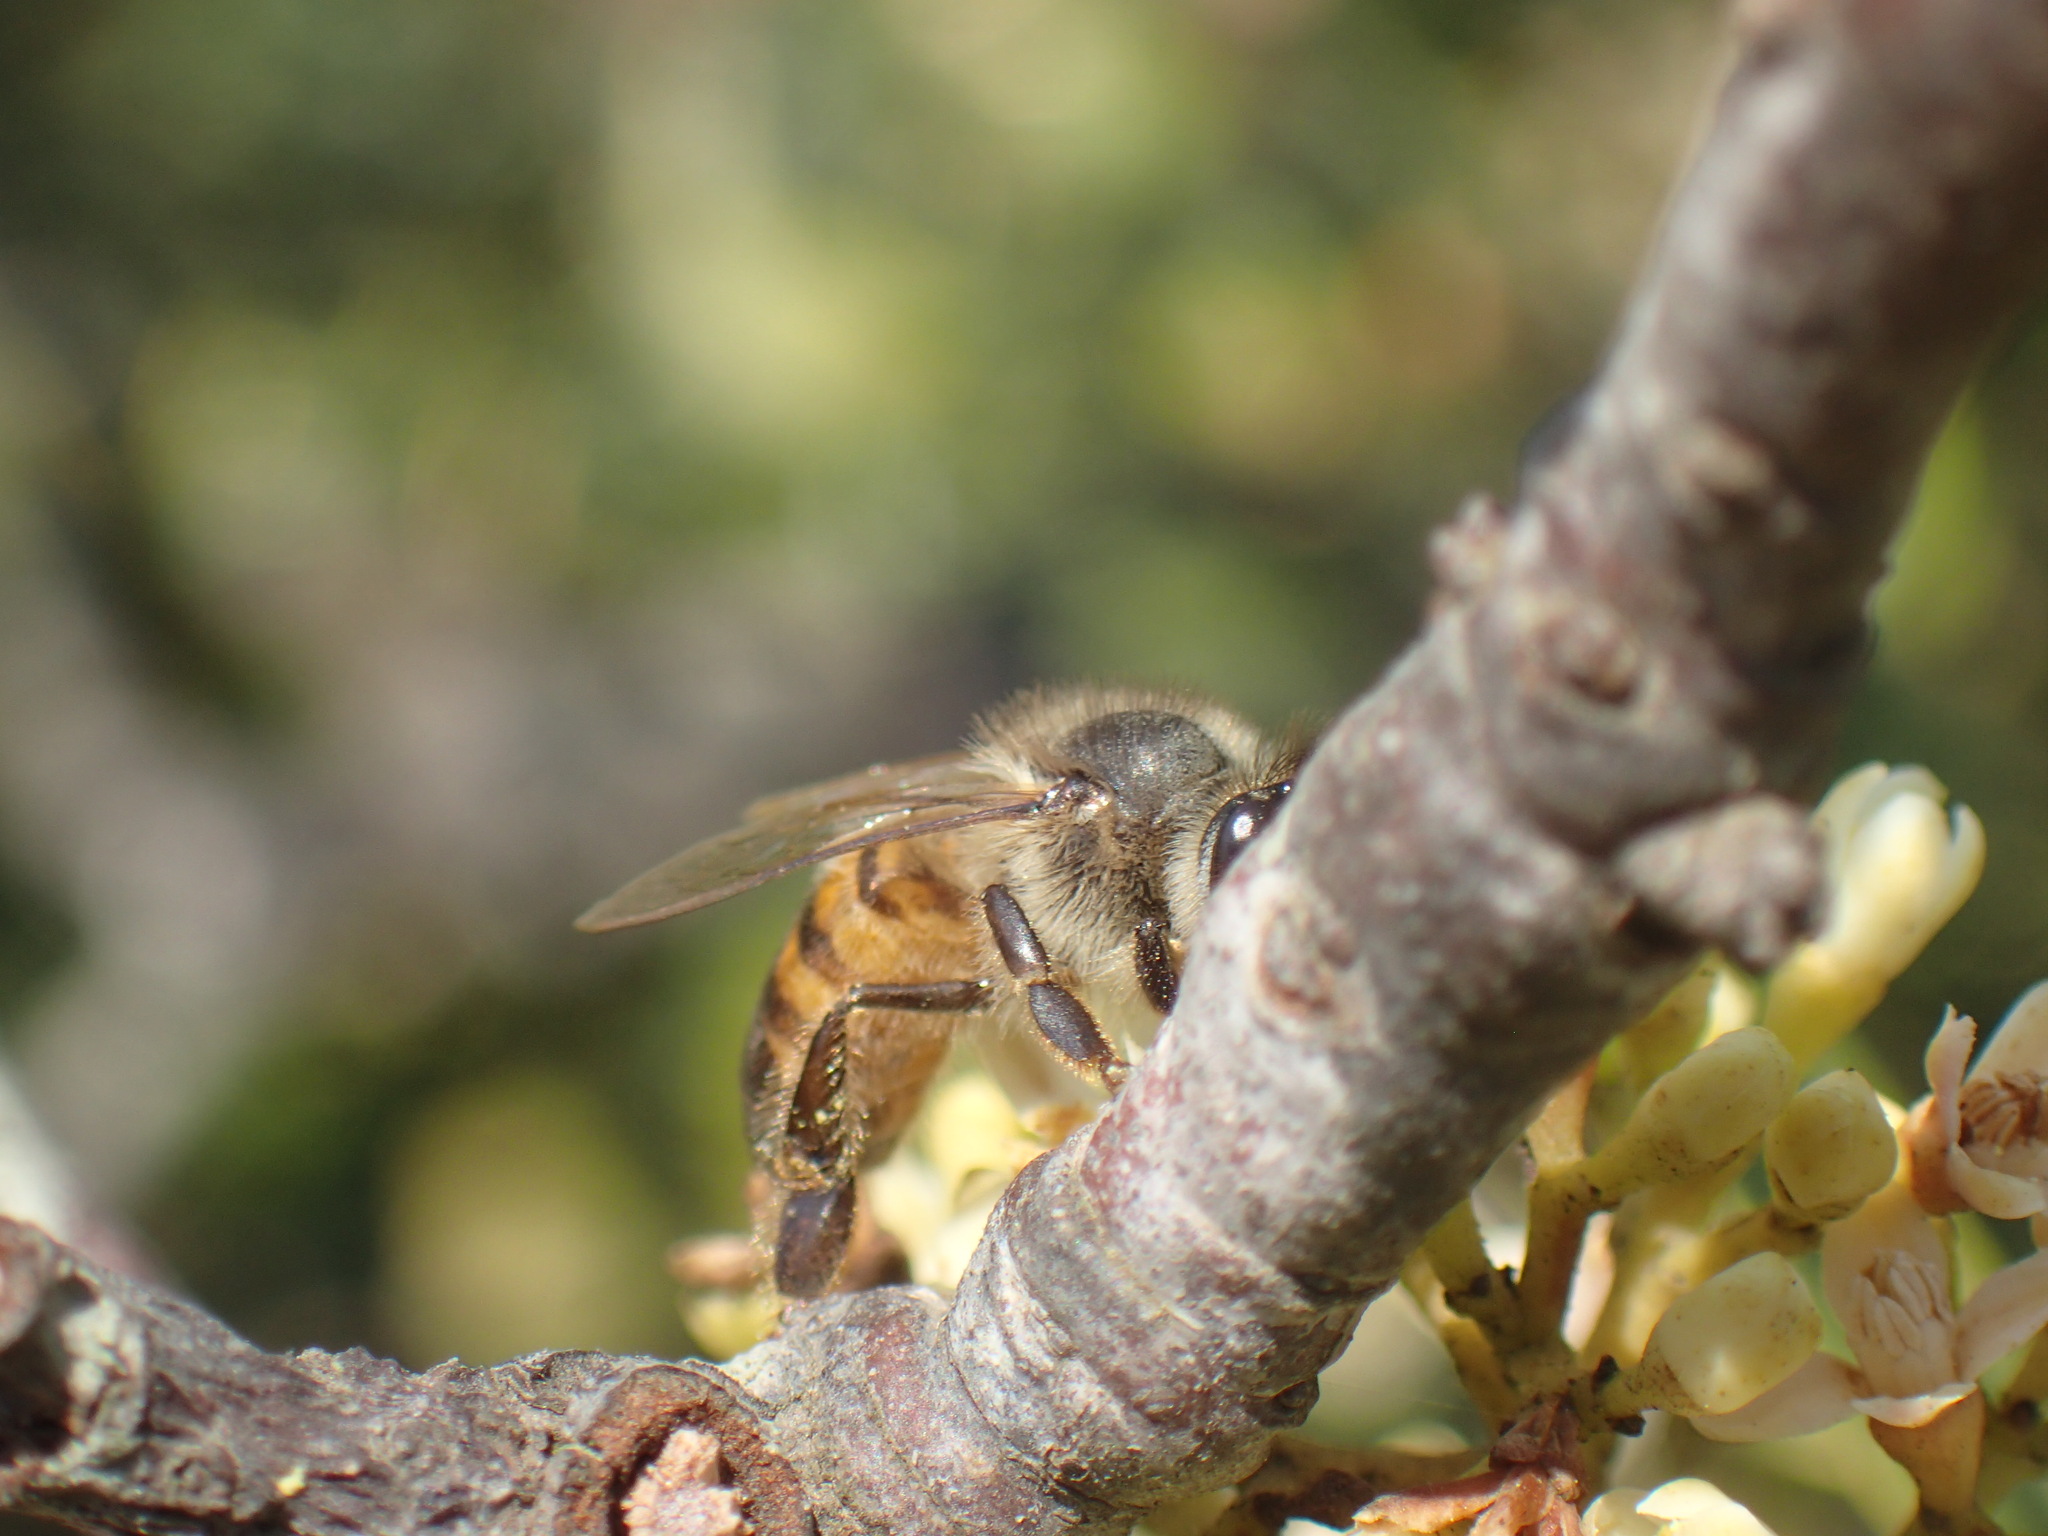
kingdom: Animalia
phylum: Arthropoda
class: Insecta
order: Hymenoptera
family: Apidae
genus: Apis
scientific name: Apis mellifera
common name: Honey bee
